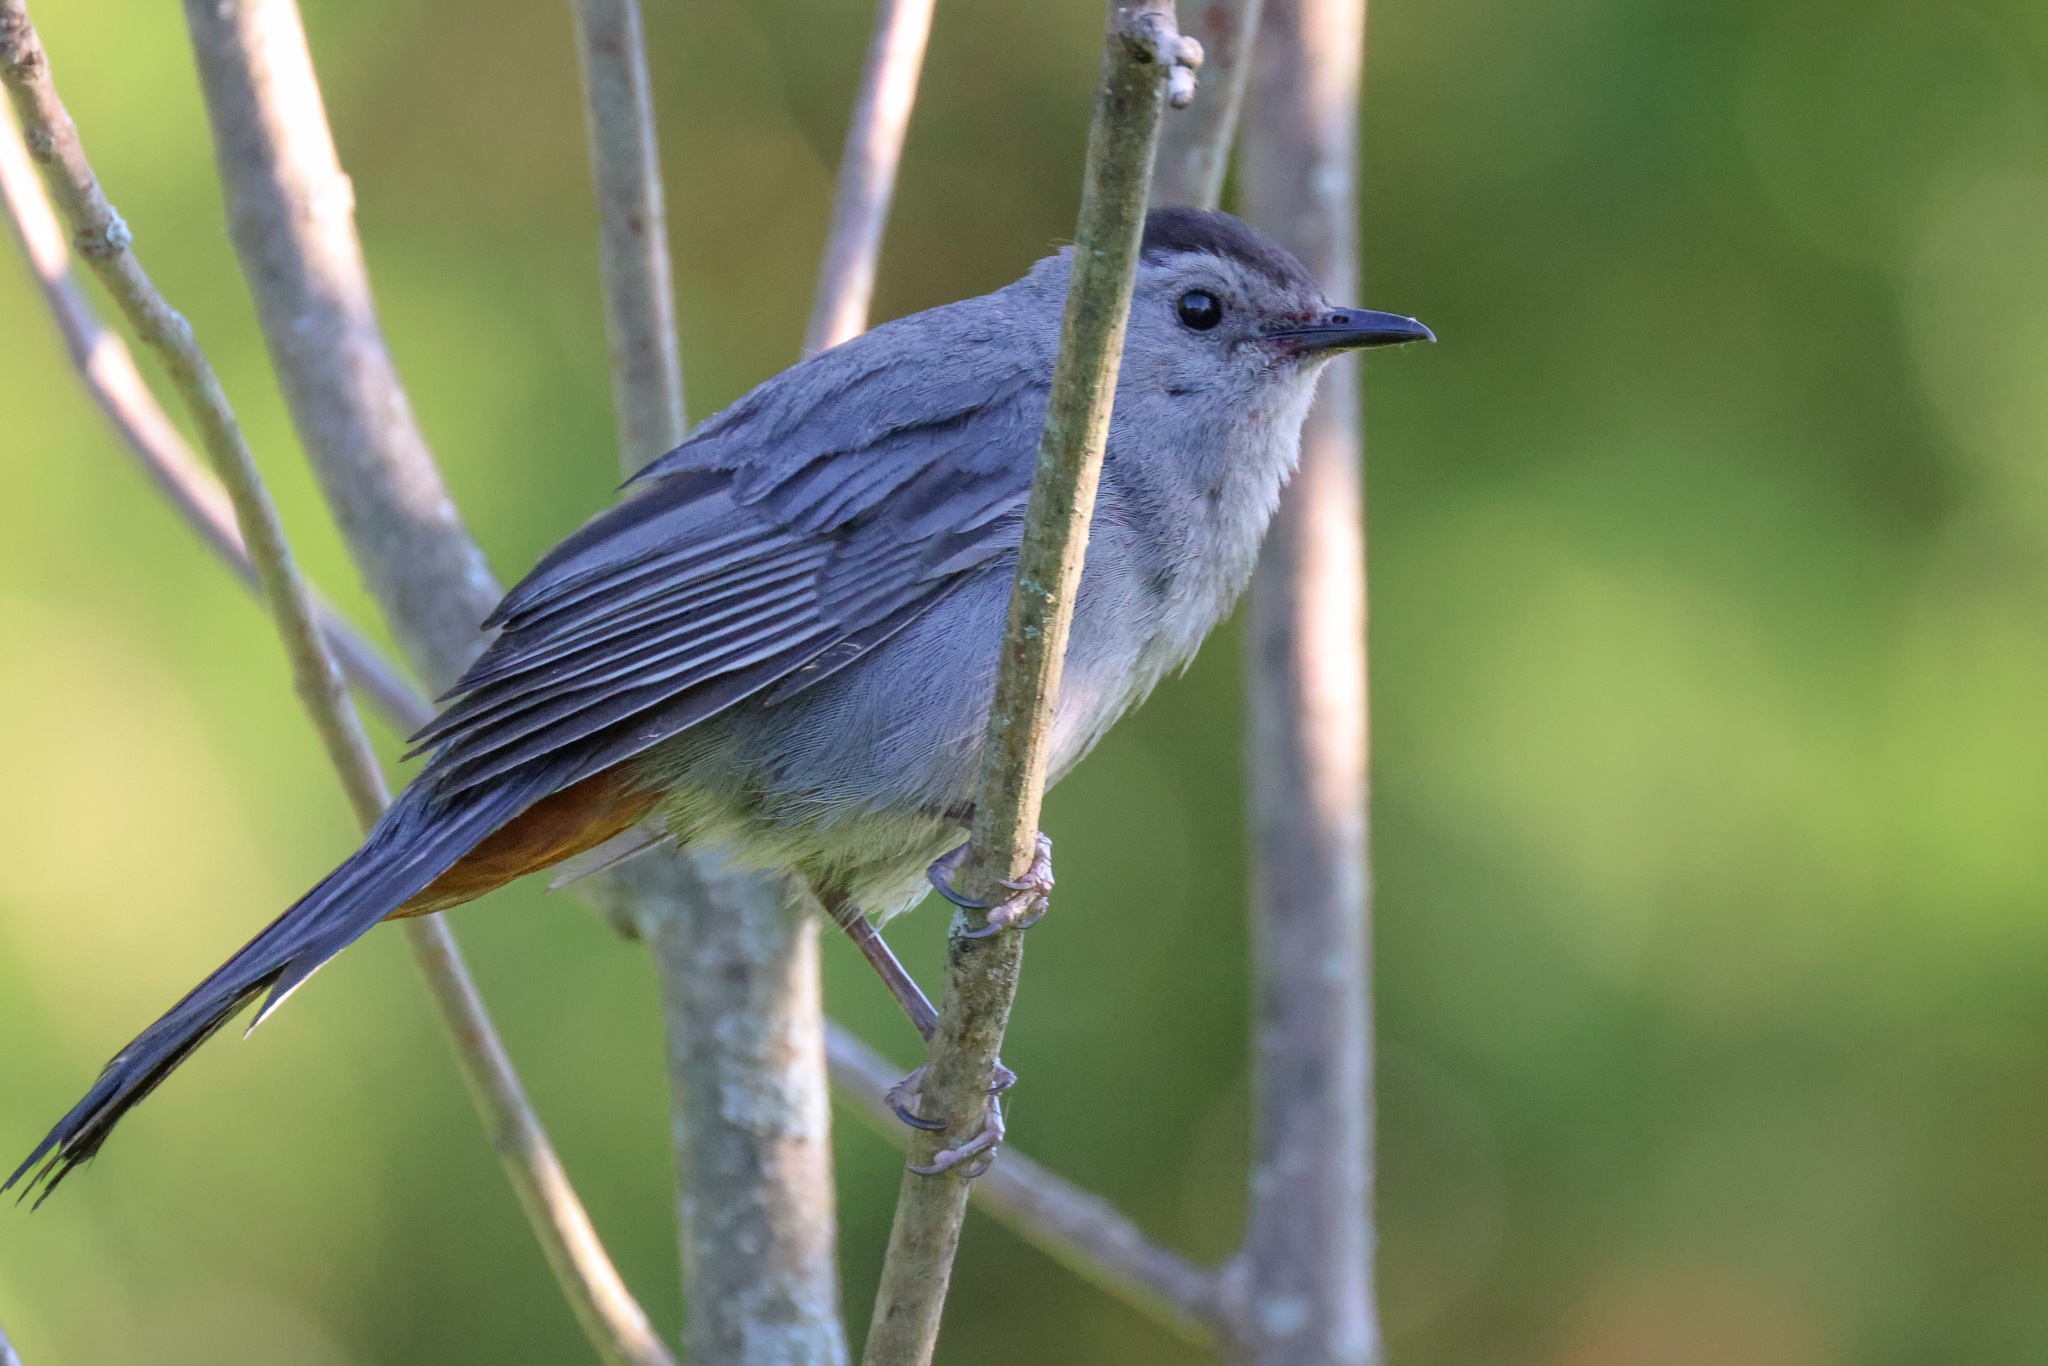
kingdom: Animalia
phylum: Chordata
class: Aves
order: Passeriformes
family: Mimidae
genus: Dumetella
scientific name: Dumetella carolinensis
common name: Gray catbird
